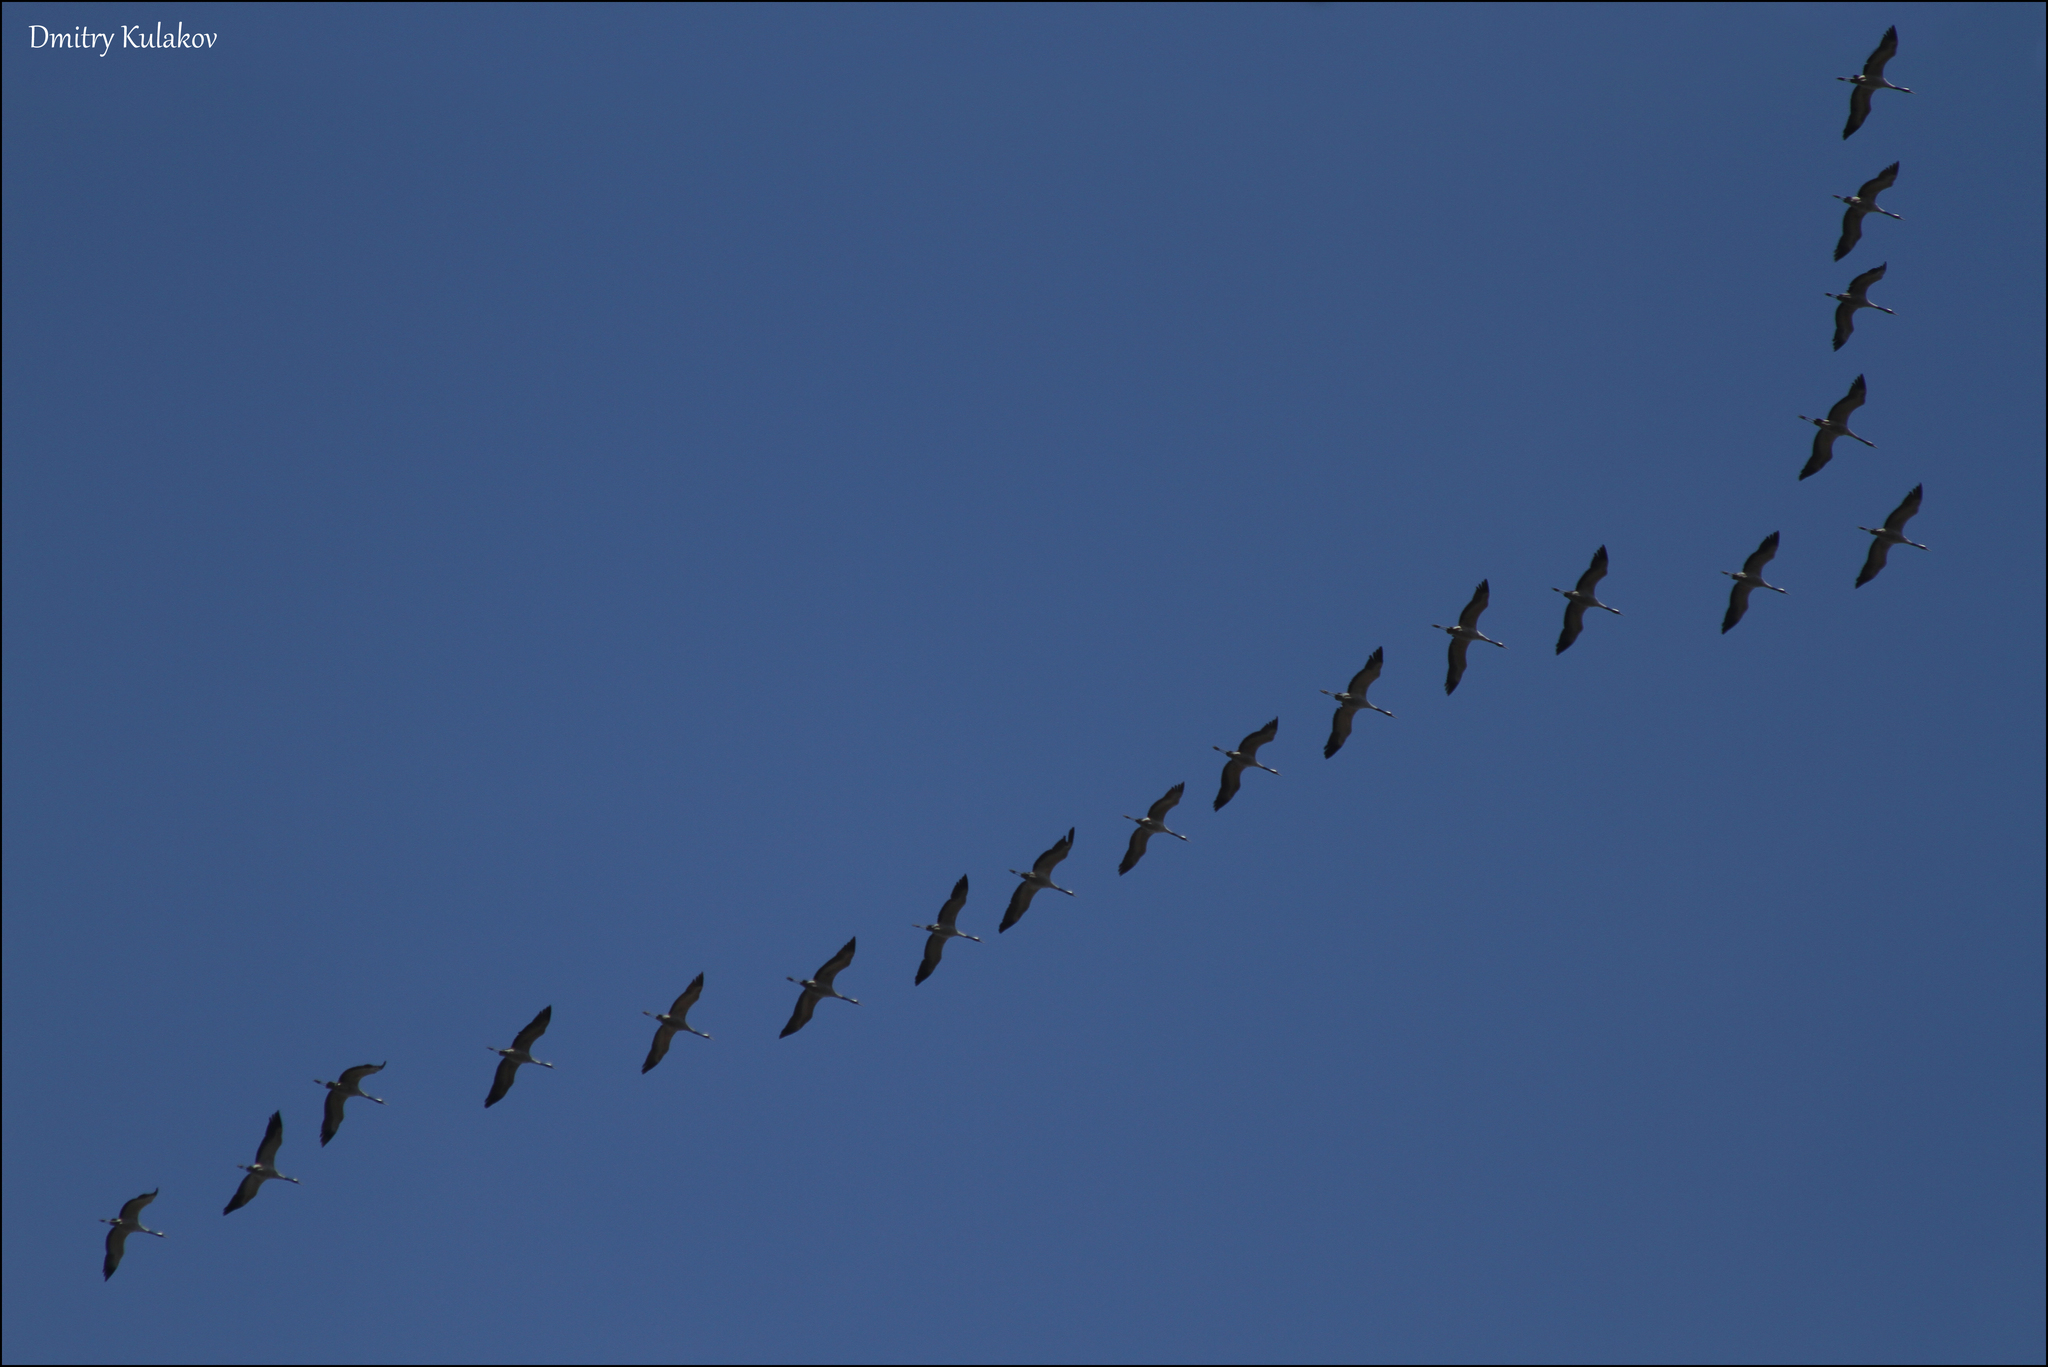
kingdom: Animalia
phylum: Chordata
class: Aves
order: Gruiformes
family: Gruidae
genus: Grus
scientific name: Grus grus
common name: Common crane
